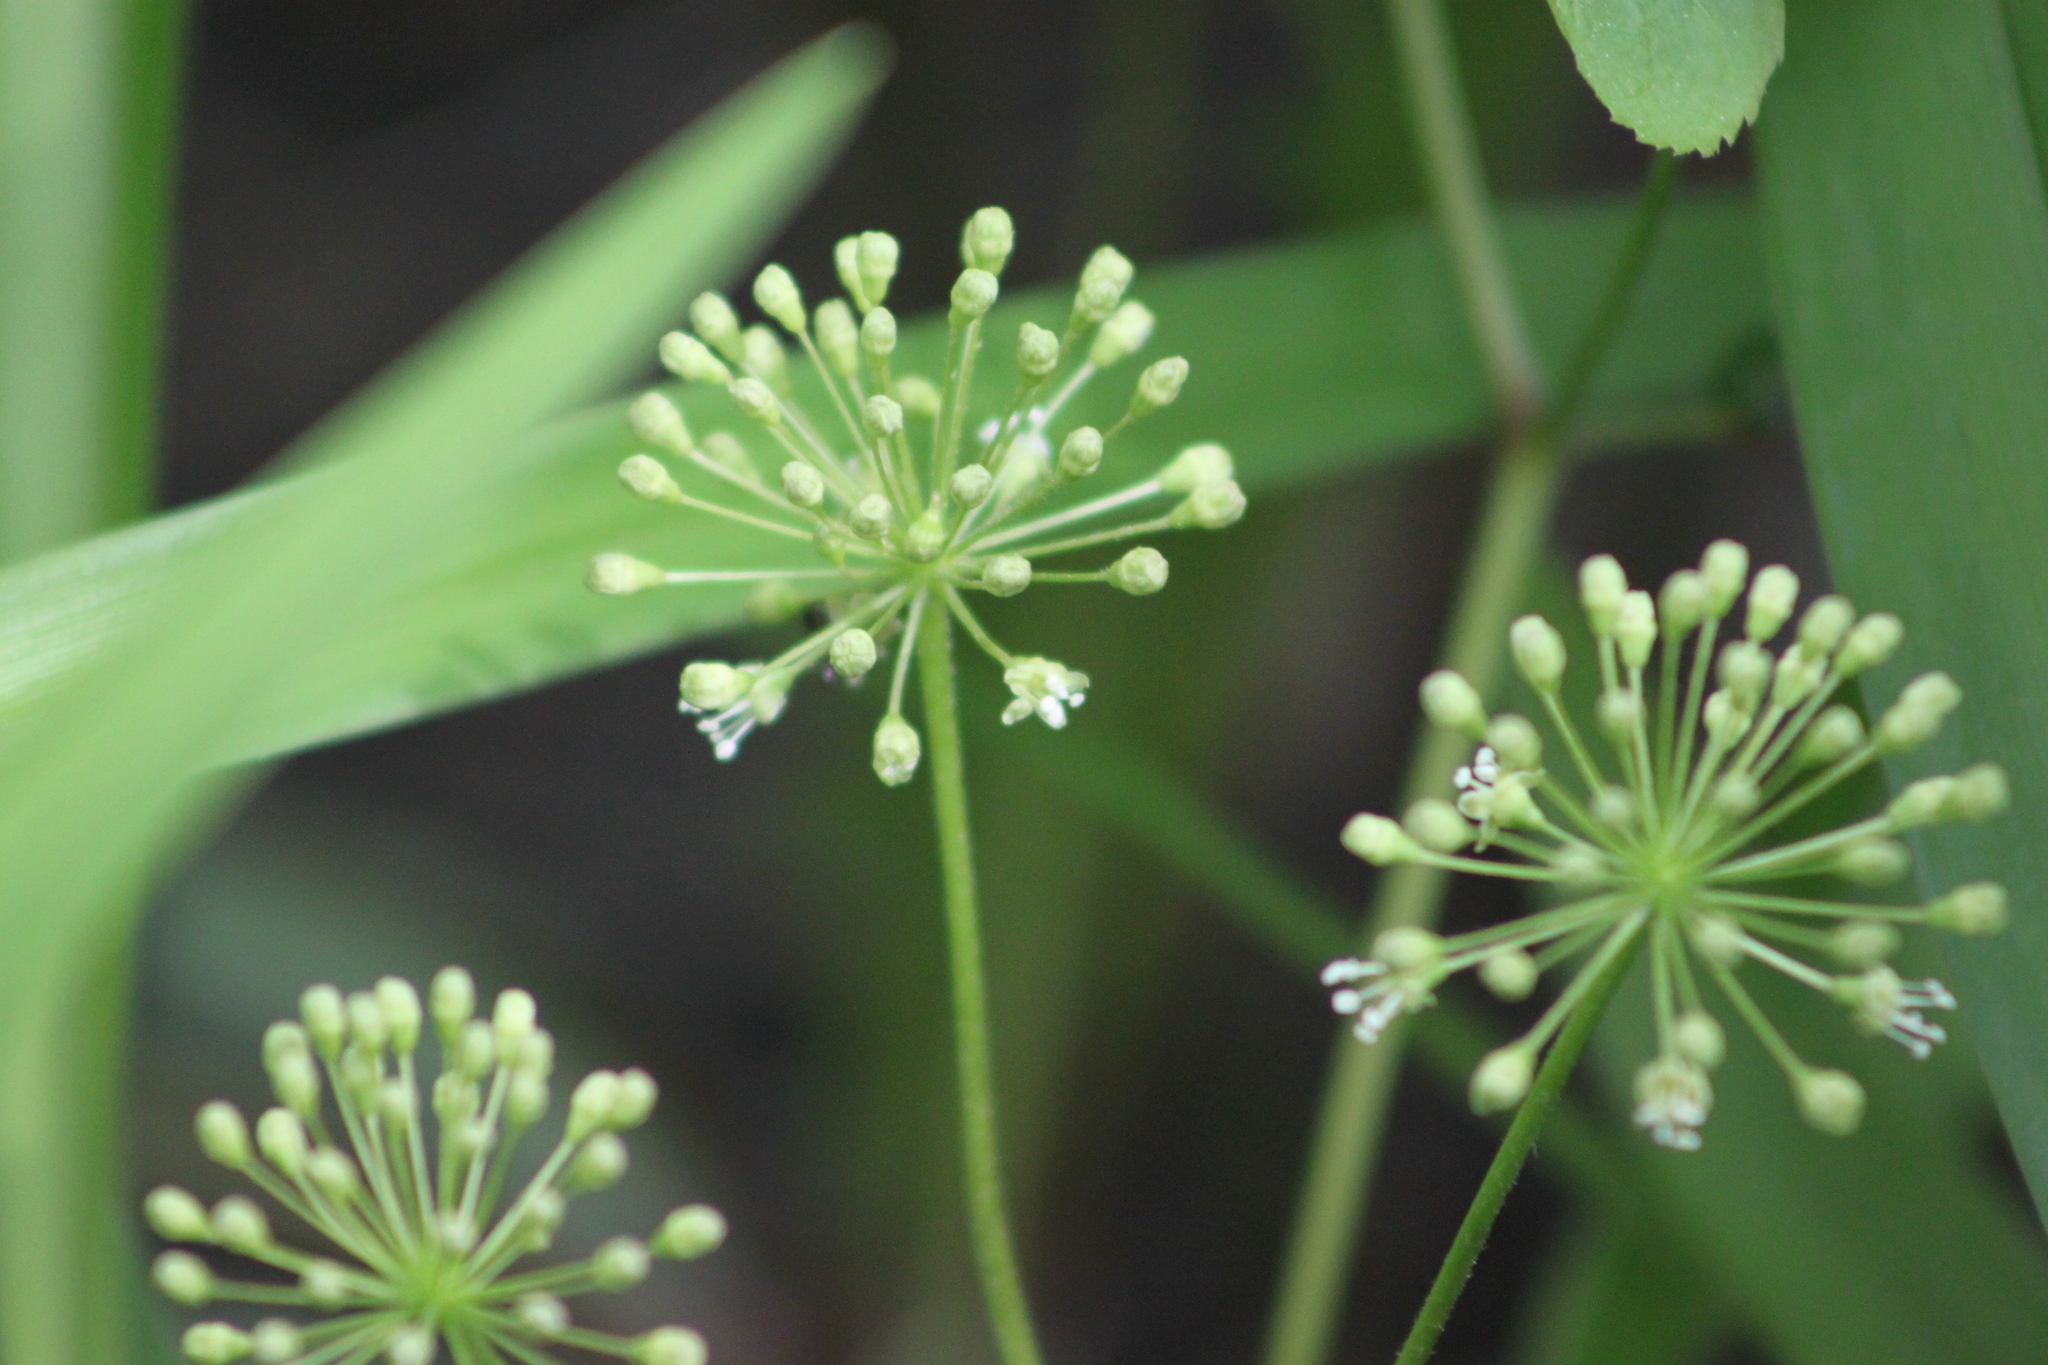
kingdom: Plantae
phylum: Tracheophyta
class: Magnoliopsida
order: Apiales
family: Araliaceae
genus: Aralia
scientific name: Aralia nudicaulis
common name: Wild sarsaparilla
